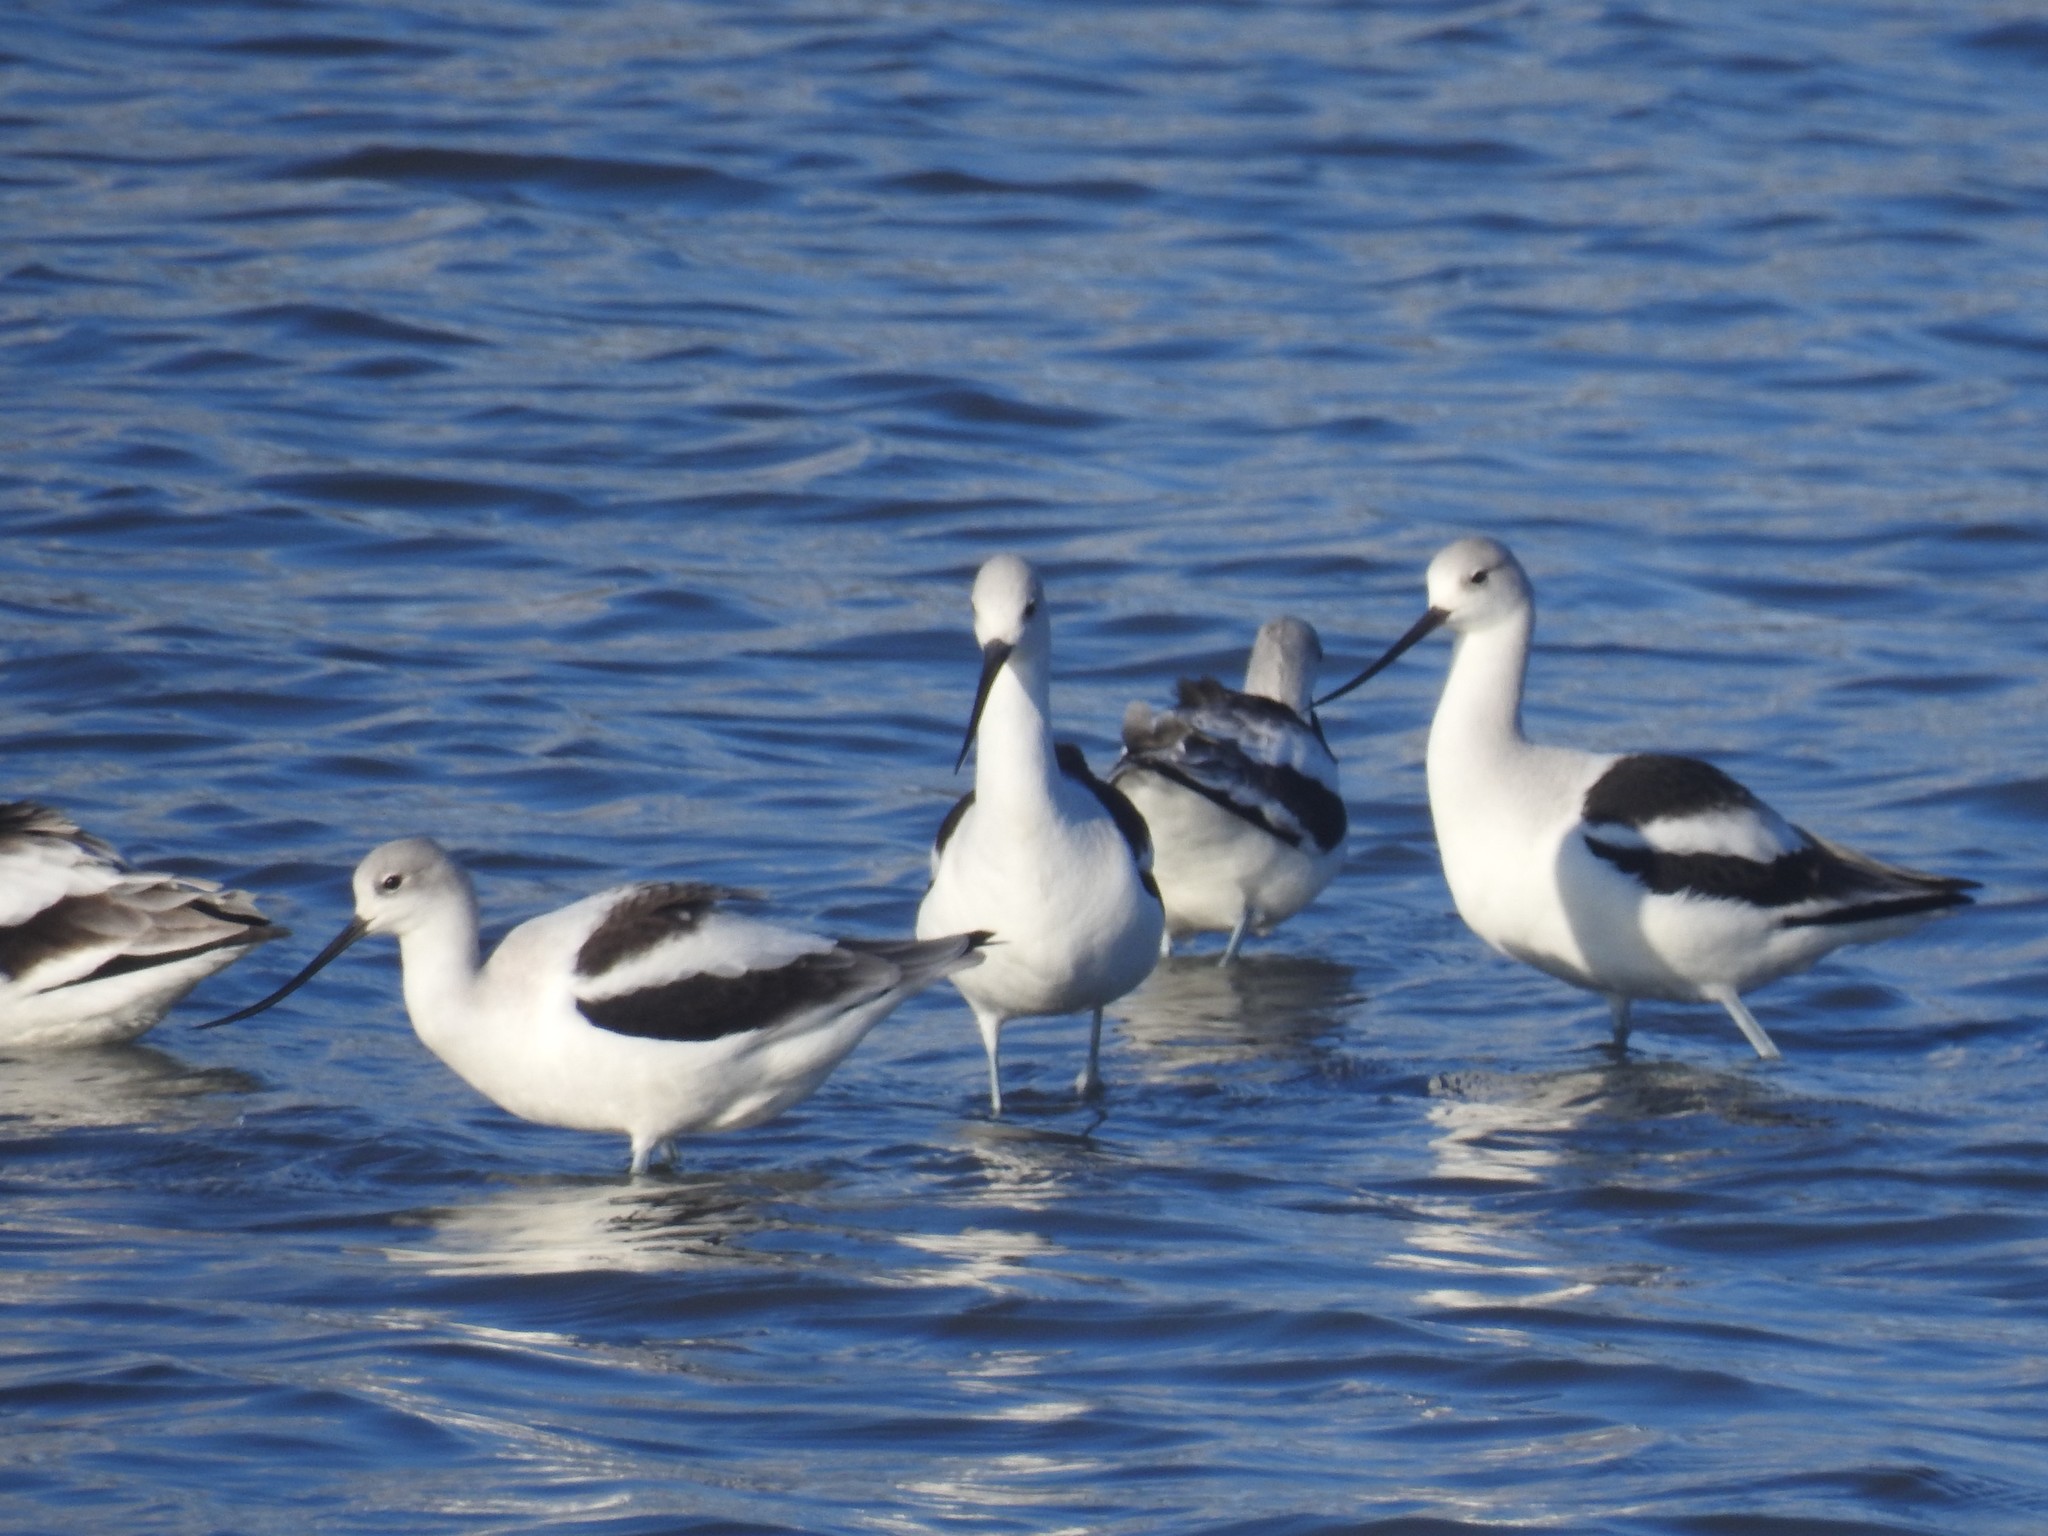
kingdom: Animalia
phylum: Chordata
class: Aves
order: Charadriiformes
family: Recurvirostridae
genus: Recurvirostra
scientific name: Recurvirostra americana
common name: American avocet
